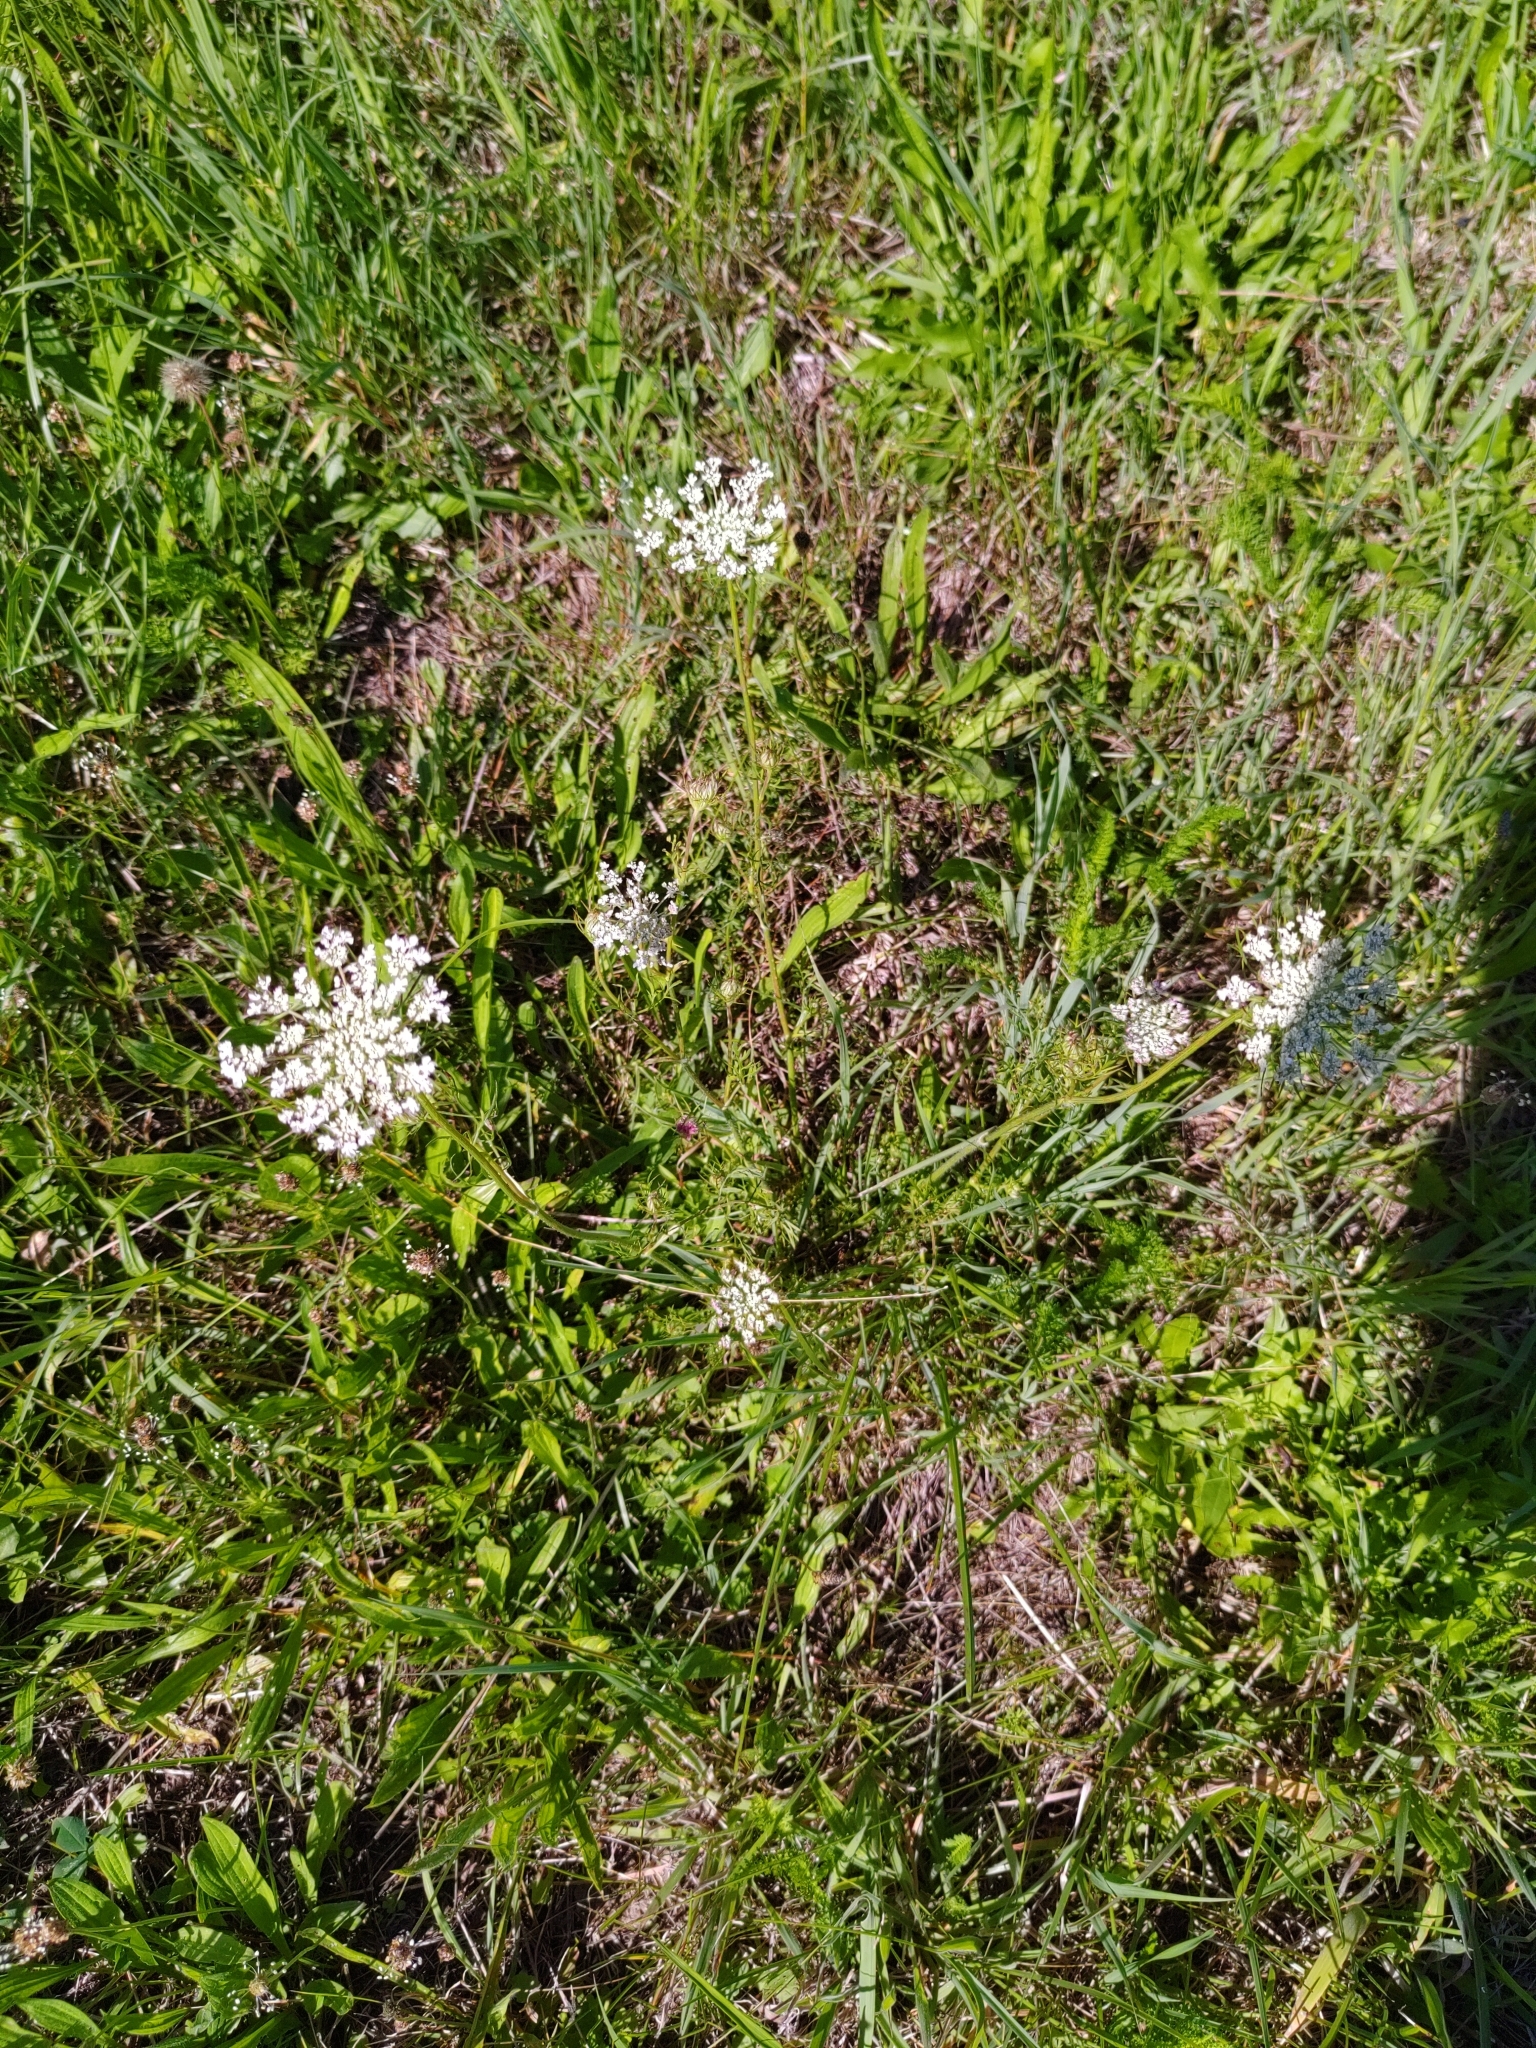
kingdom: Plantae
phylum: Tracheophyta
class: Magnoliopsida
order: Apiales
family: Apiaceae
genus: Daucus
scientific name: Daucus carota
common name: Wild carrot
